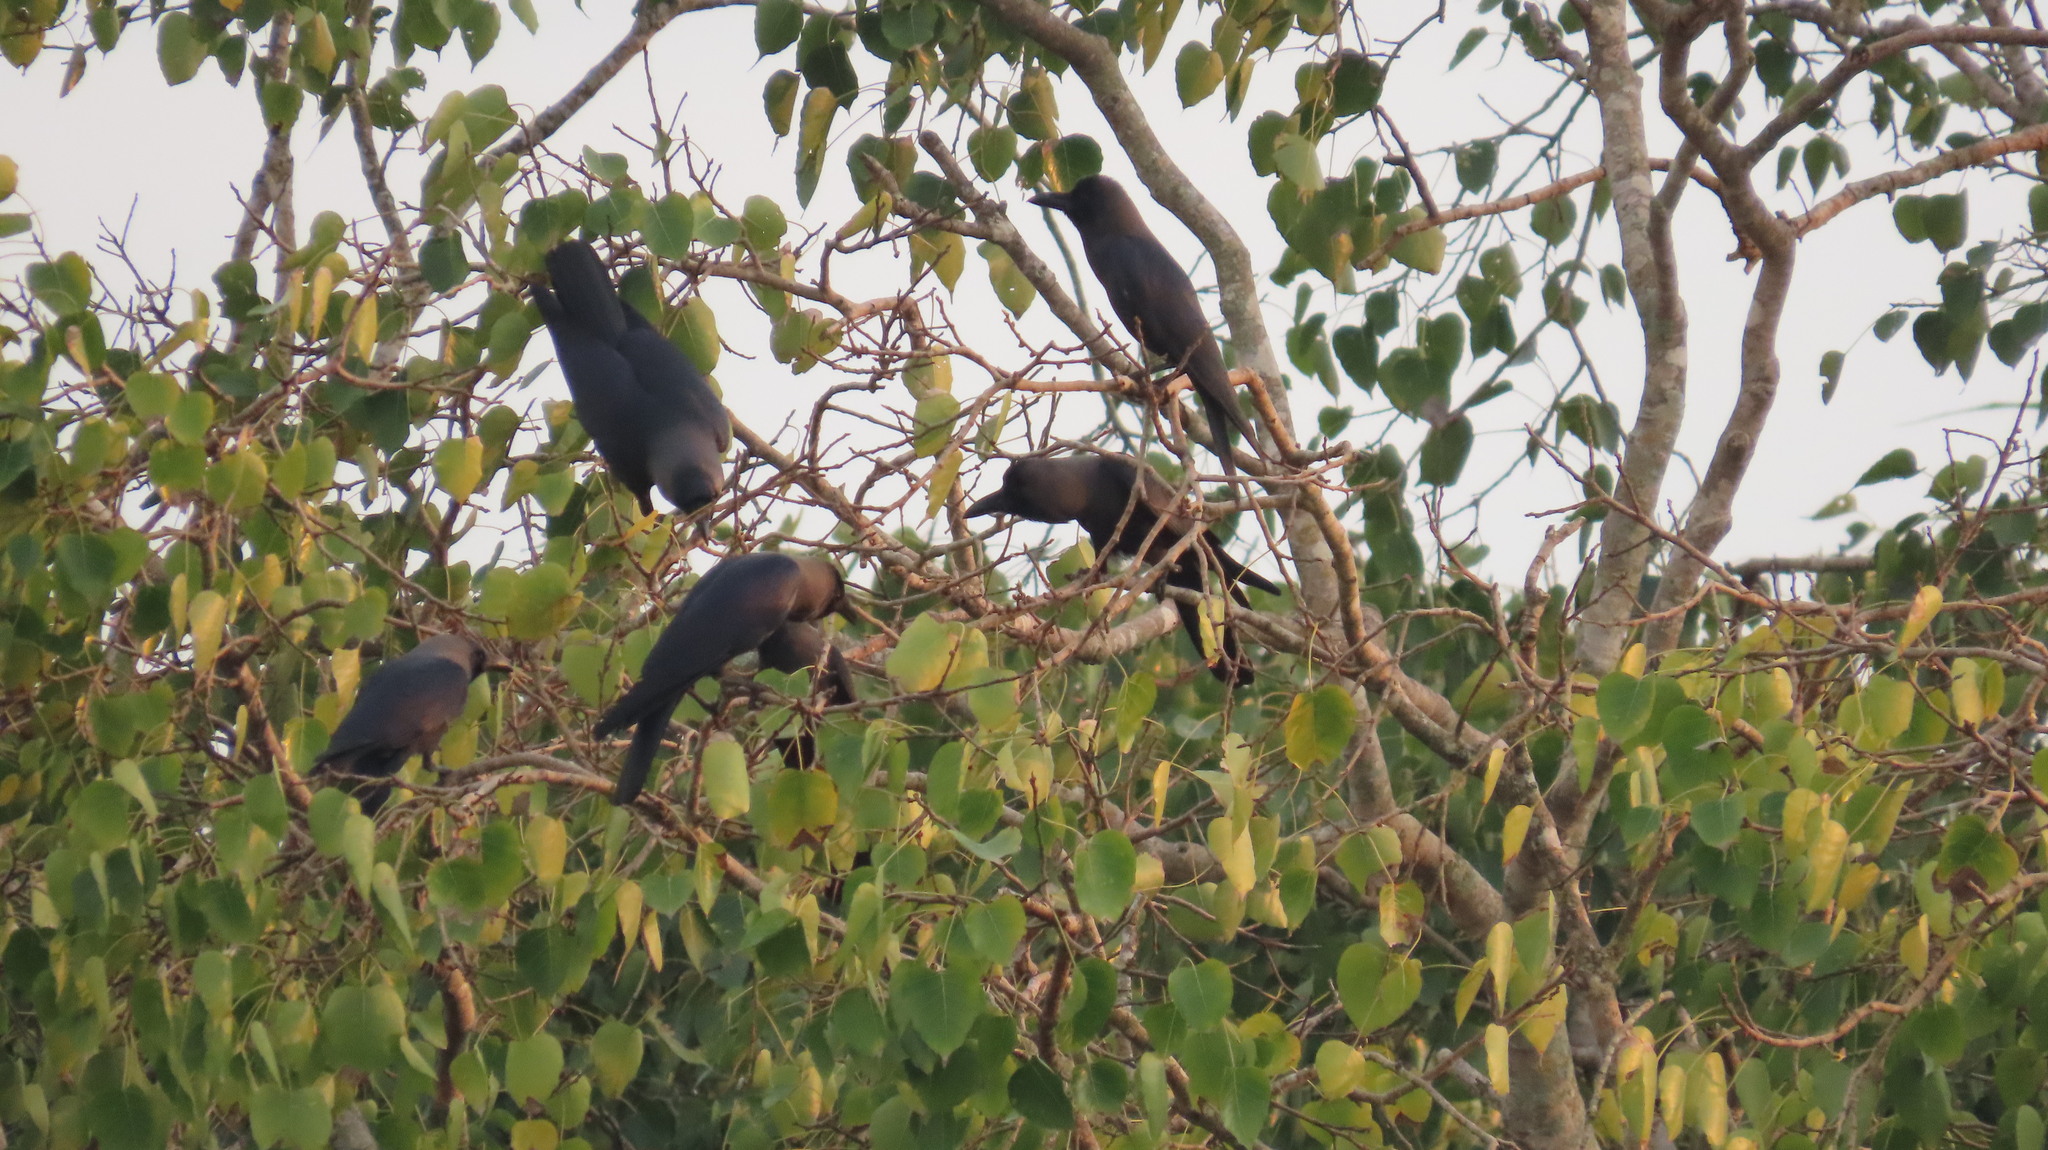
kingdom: Animalia
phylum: Chordata
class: Aves
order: Passeriformes
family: Corvidae
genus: Corvus
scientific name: Corvus splendens
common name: House crow
